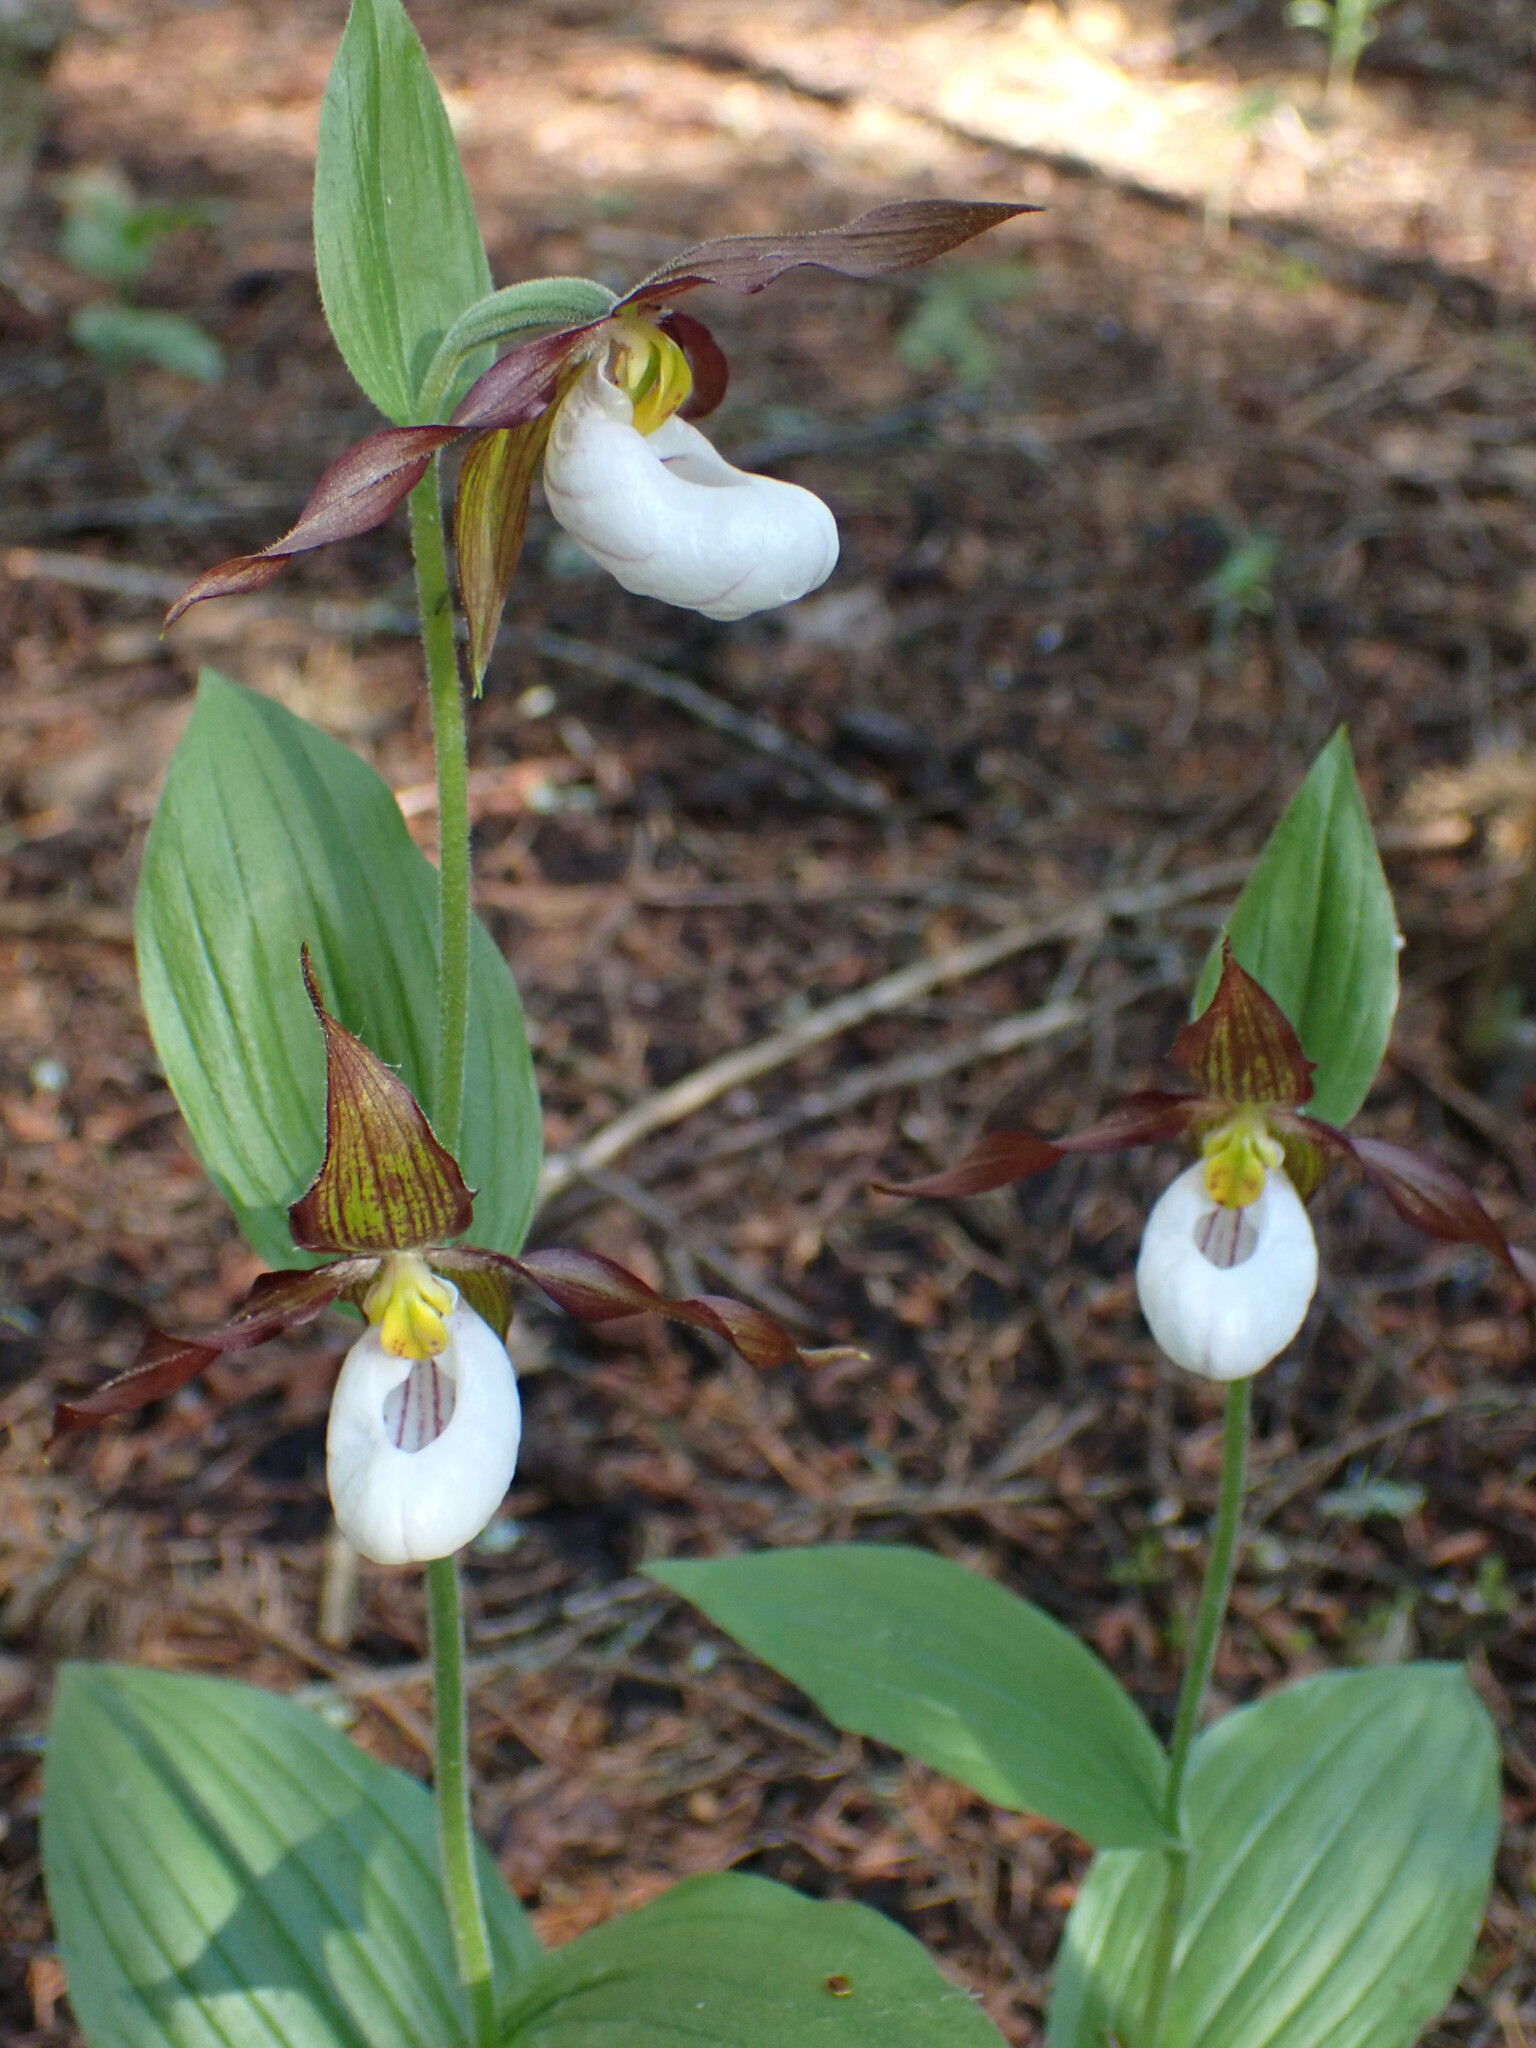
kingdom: Plantae
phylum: Tracheophyta
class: Liliopsida
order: Asparagales
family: Orchidaceae
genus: Cypripedium
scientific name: Cypripedium montanum
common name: Mountain lady's-slipper
